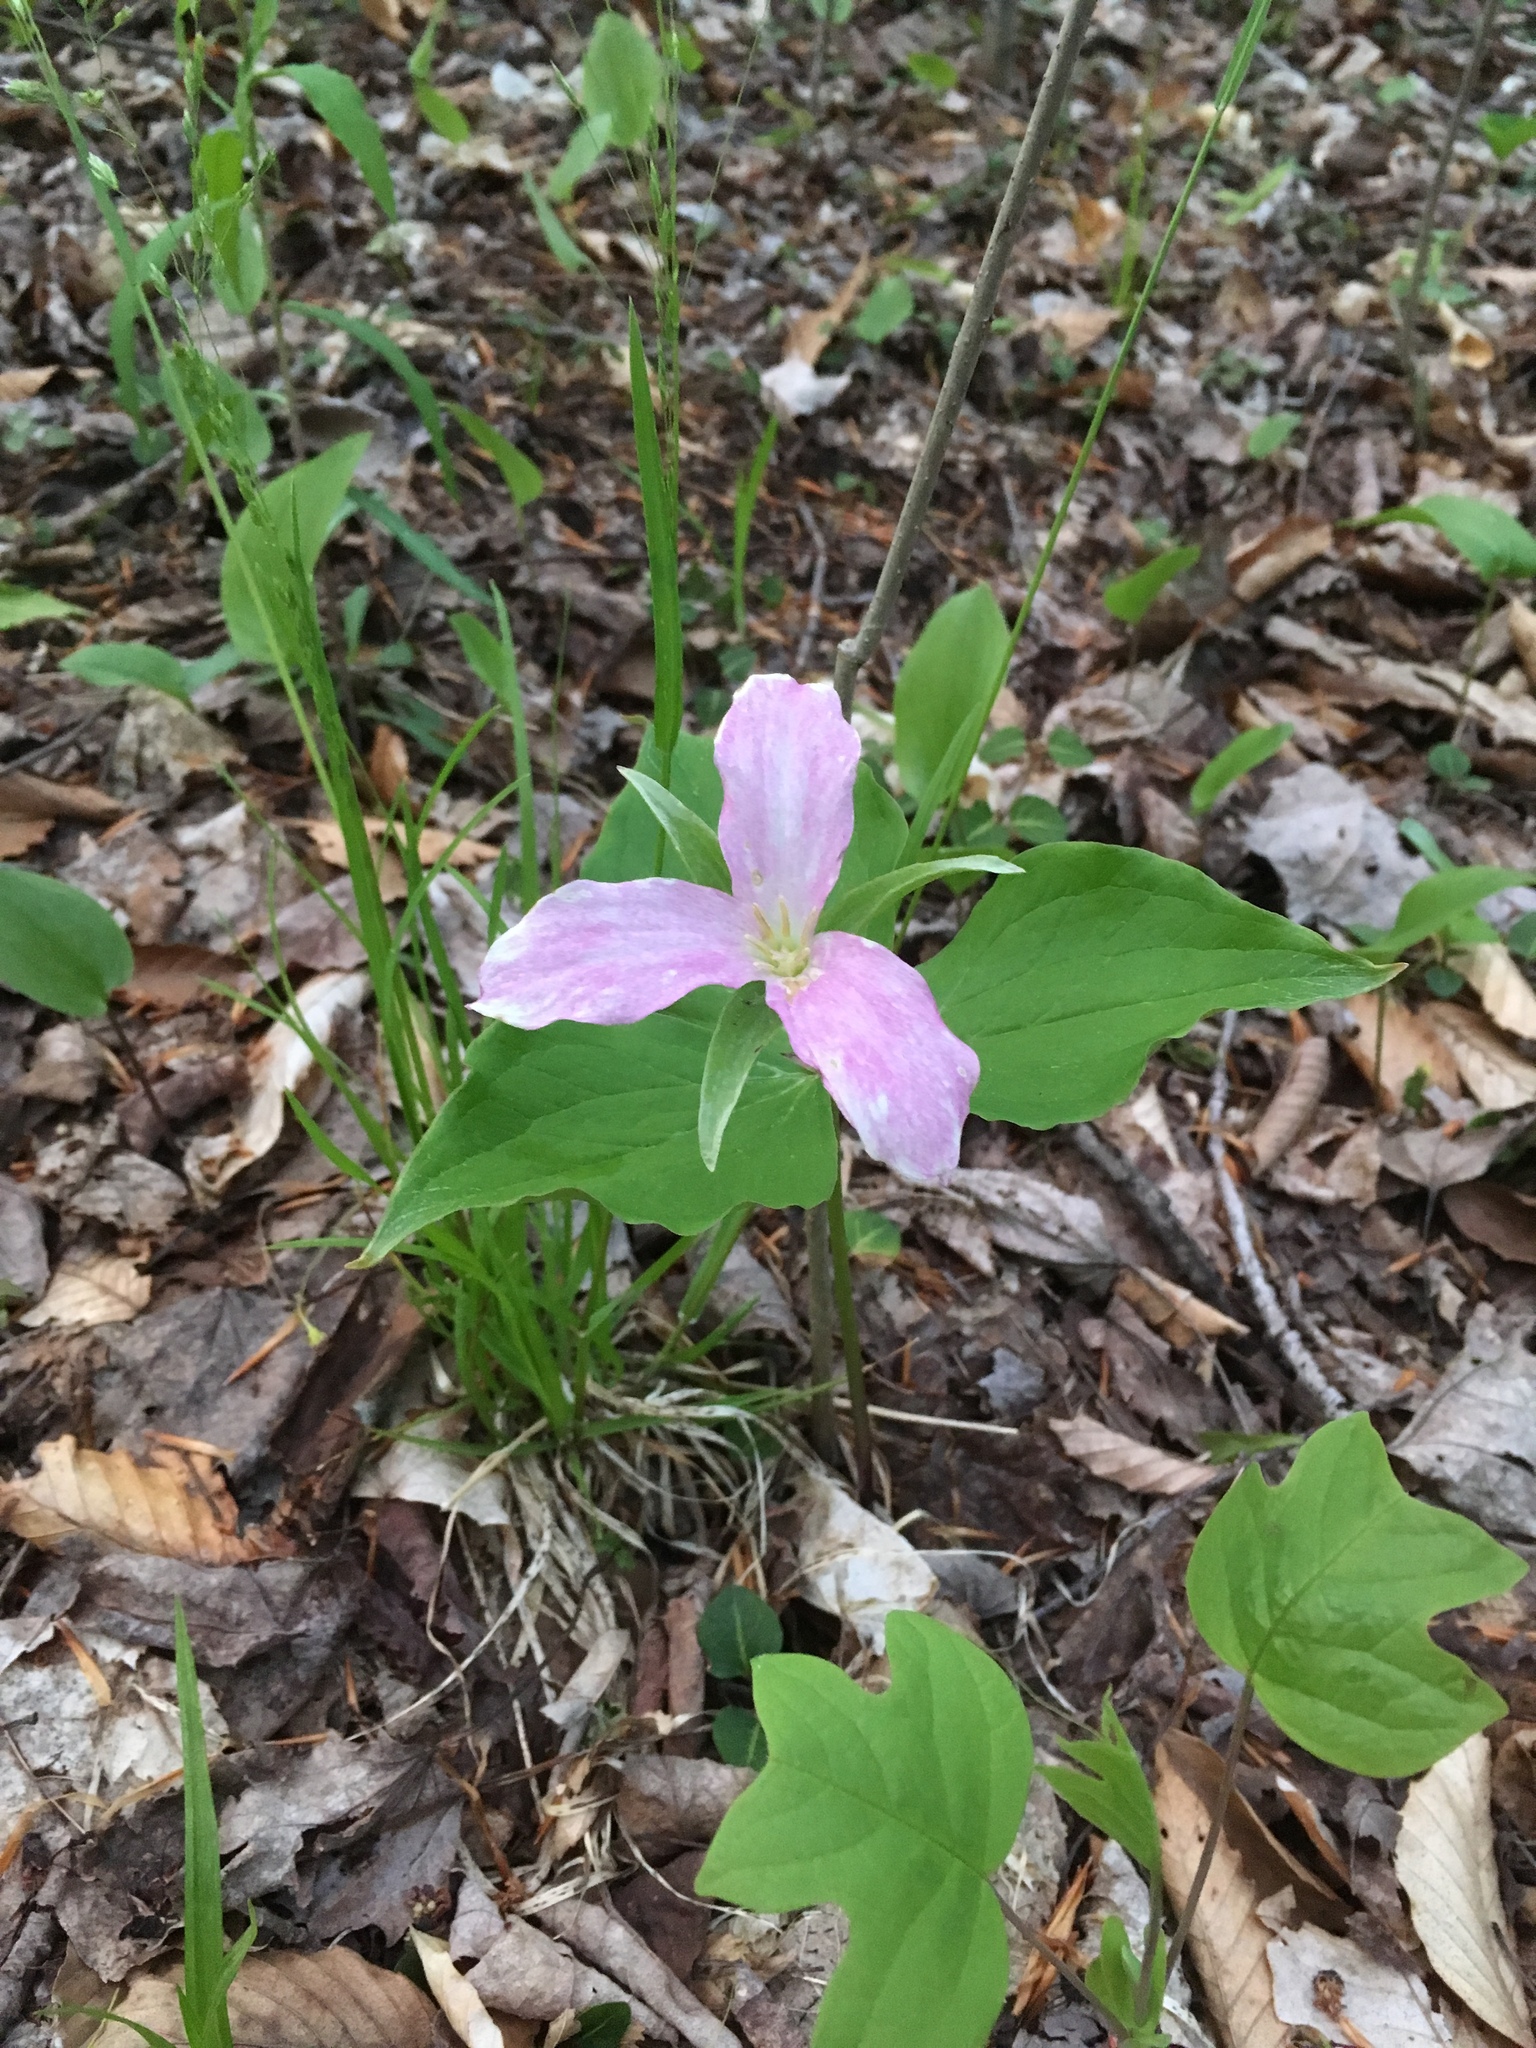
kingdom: Plantae
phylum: Tracheophyta
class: Liliopsida
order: Liliales
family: Melanthiaceae
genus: Trillium
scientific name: Trillium grandiflorum
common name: Great white trillium
